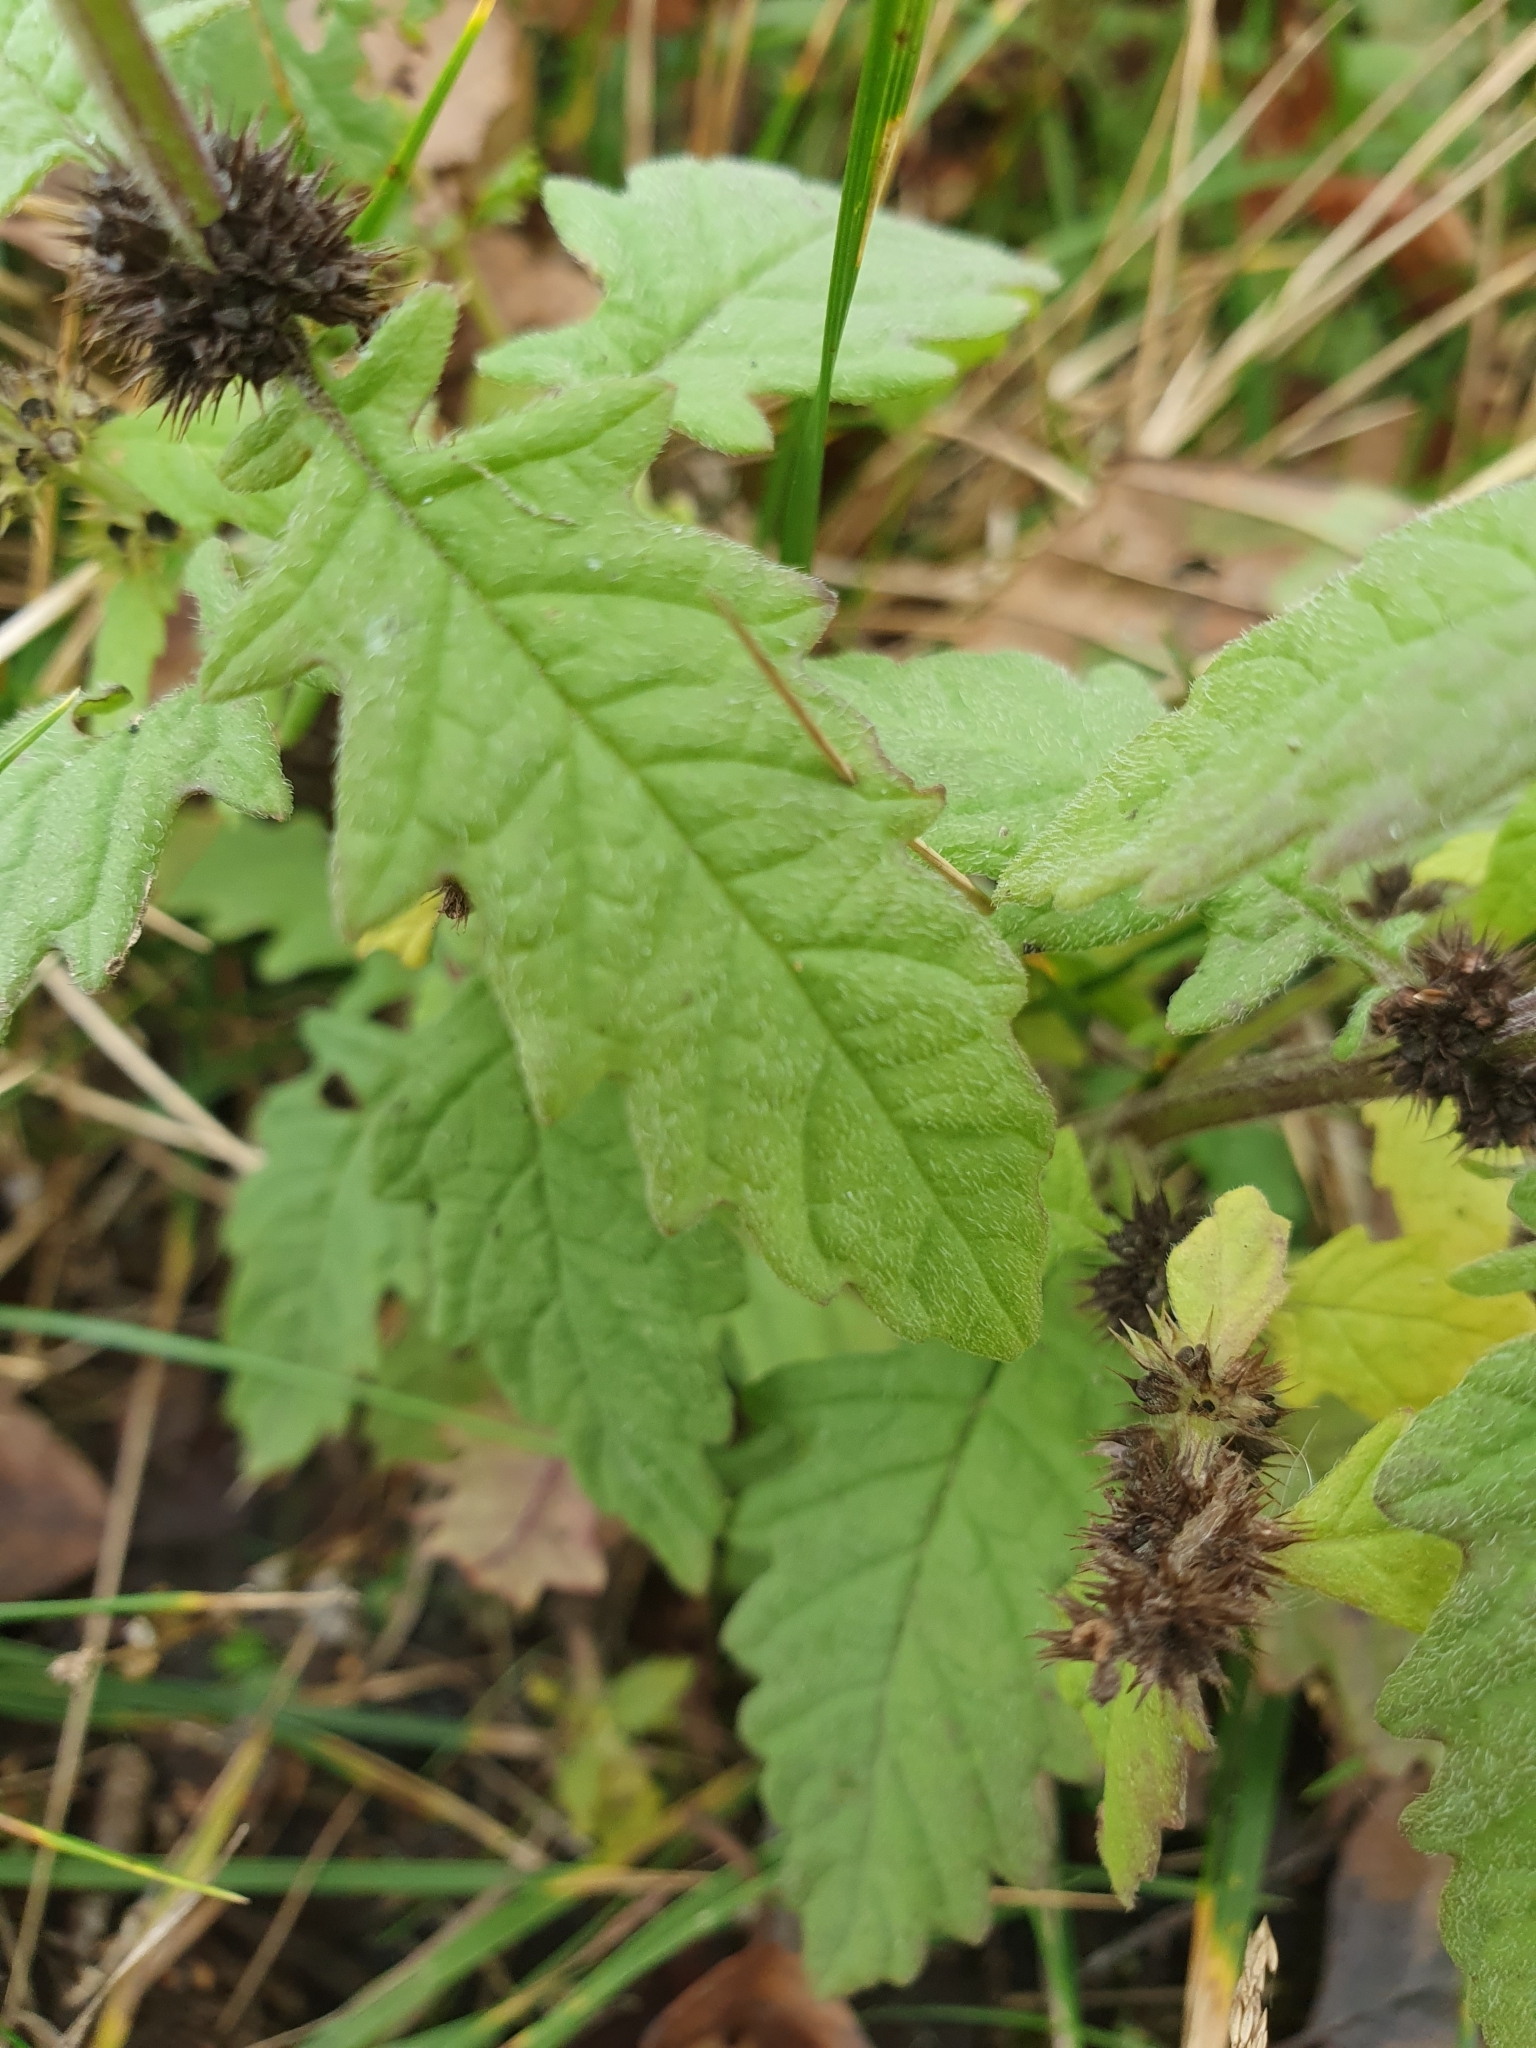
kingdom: Plantae
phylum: Tracheophyta
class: Magnoliopsida
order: Lamiales
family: Lamiaceae
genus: Lycopus
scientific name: Lycopus europaeus
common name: European bugleweed
